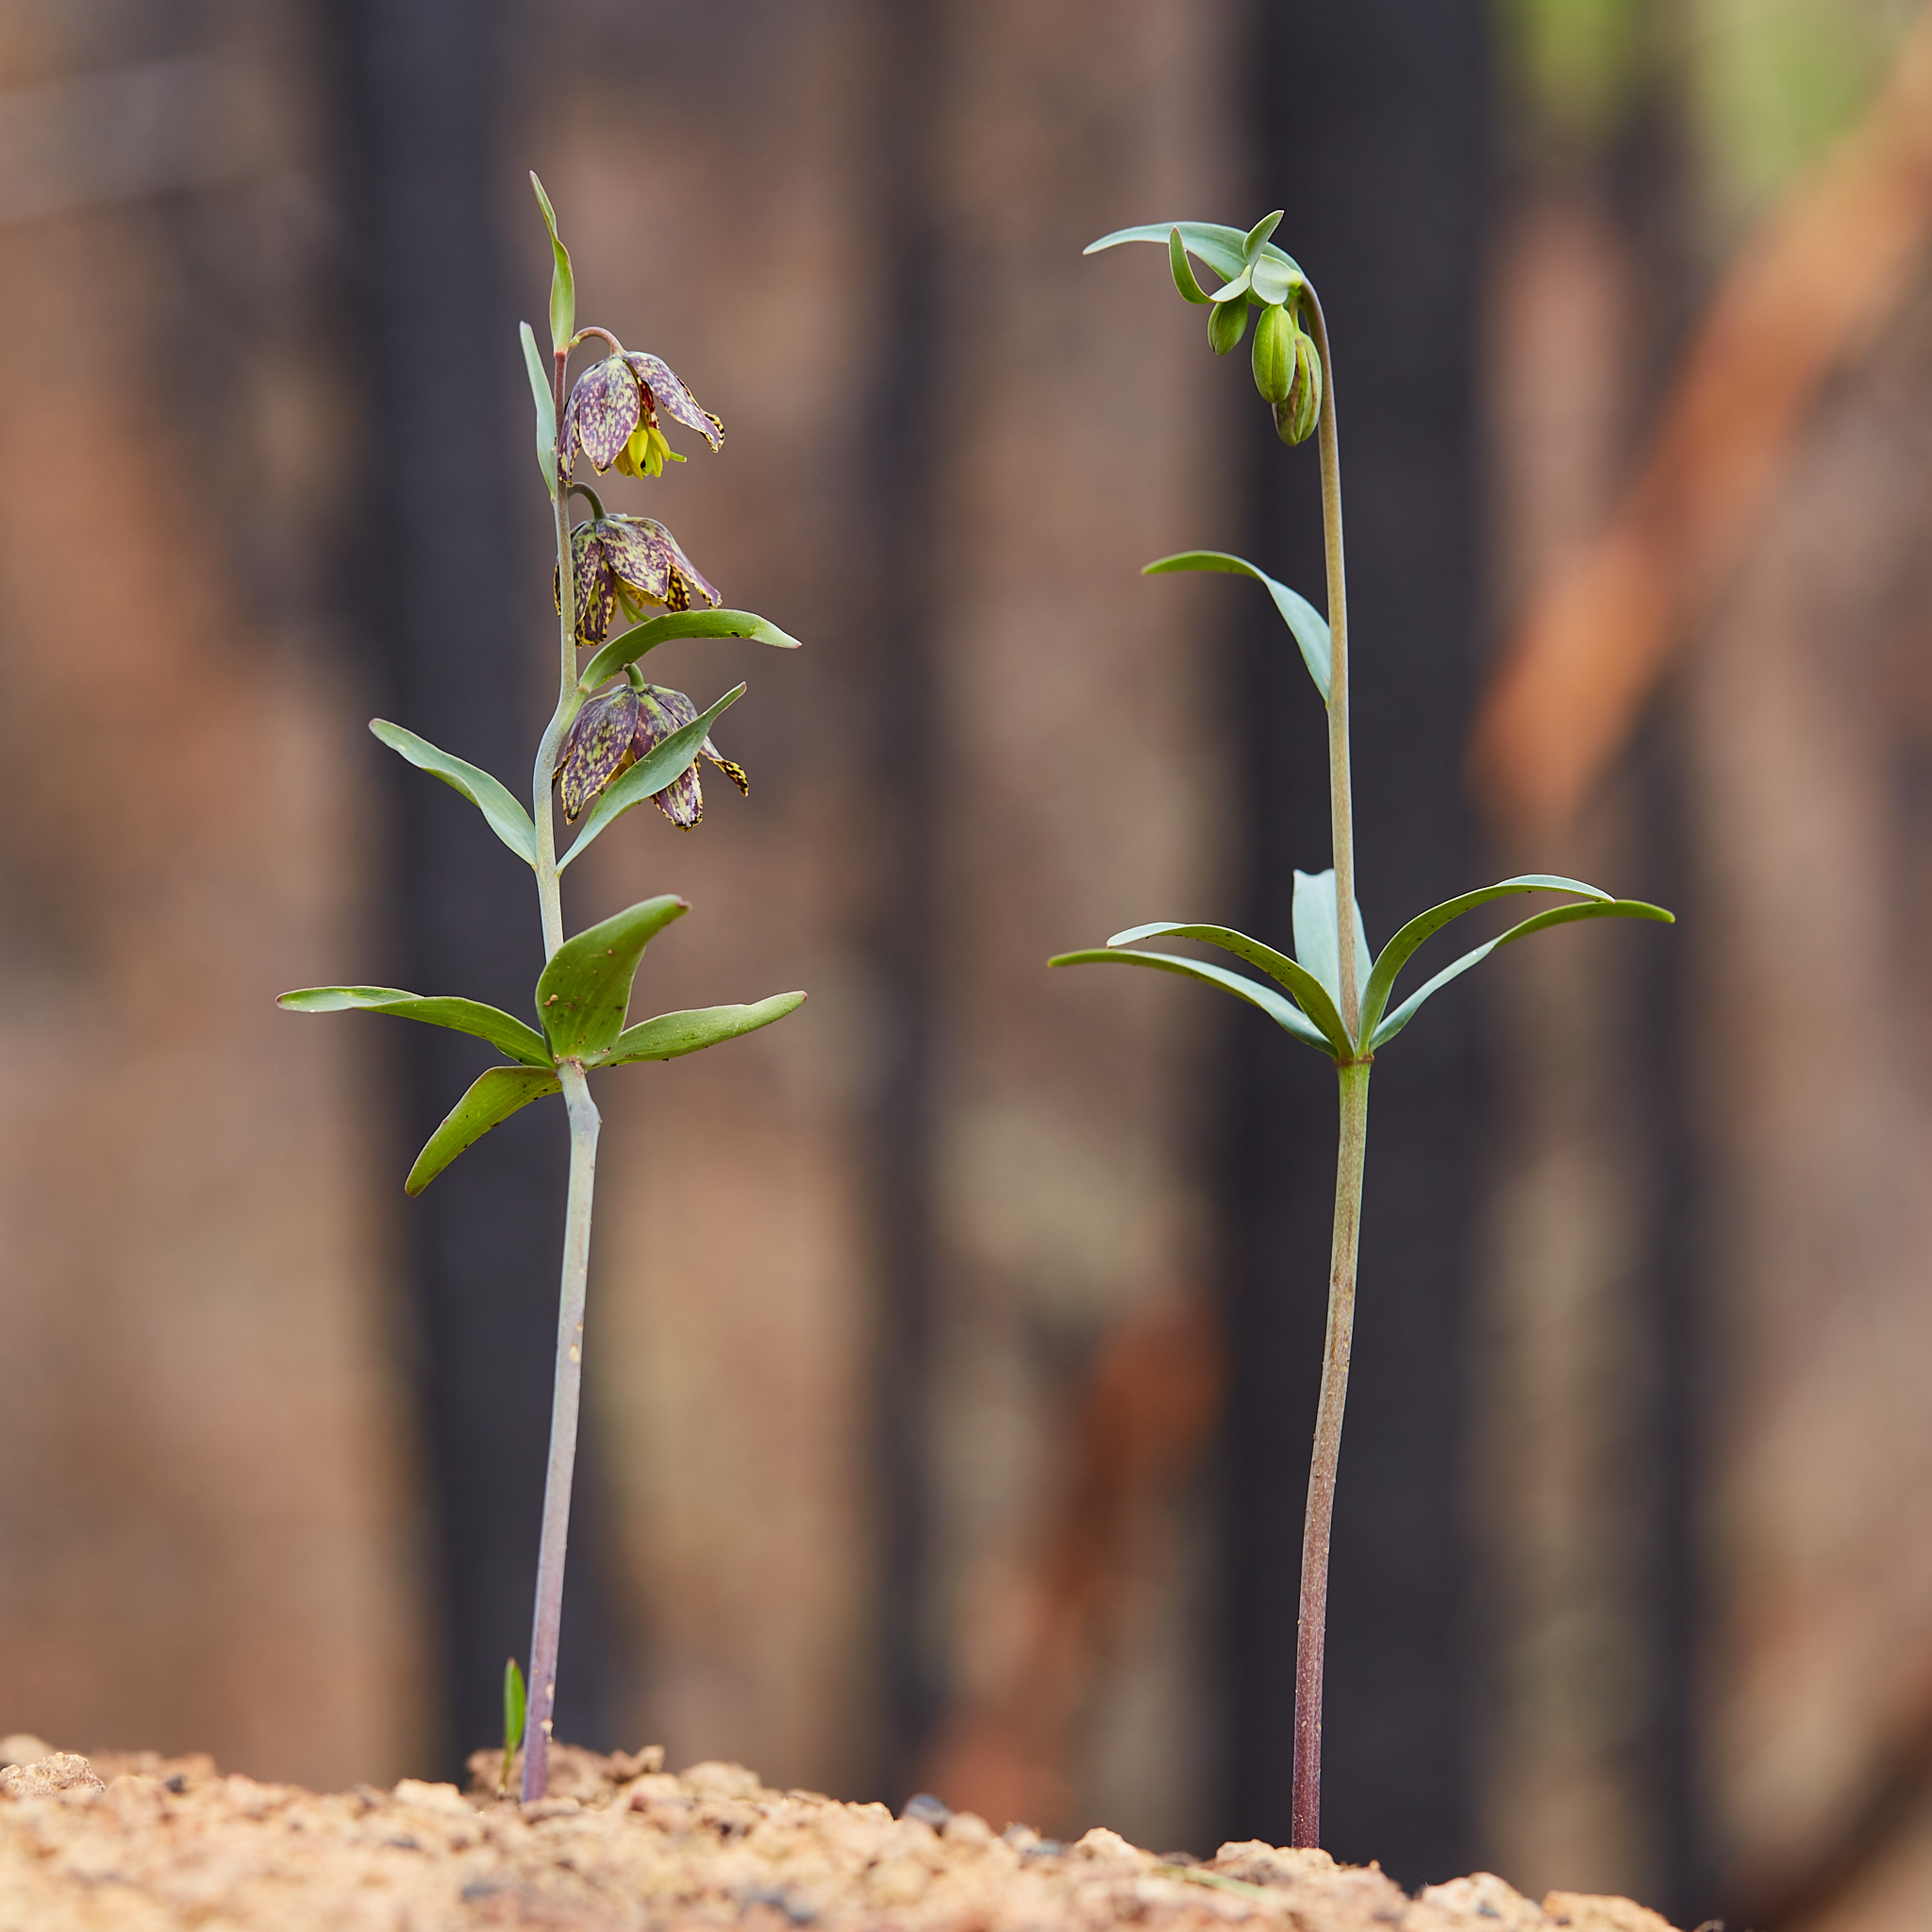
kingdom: Plantae
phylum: Tracheophyta
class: Liliopsida
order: Liliales
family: Liliaceae
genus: Fritillaria
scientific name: Fritillaria affinis
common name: Ojai fritillary
